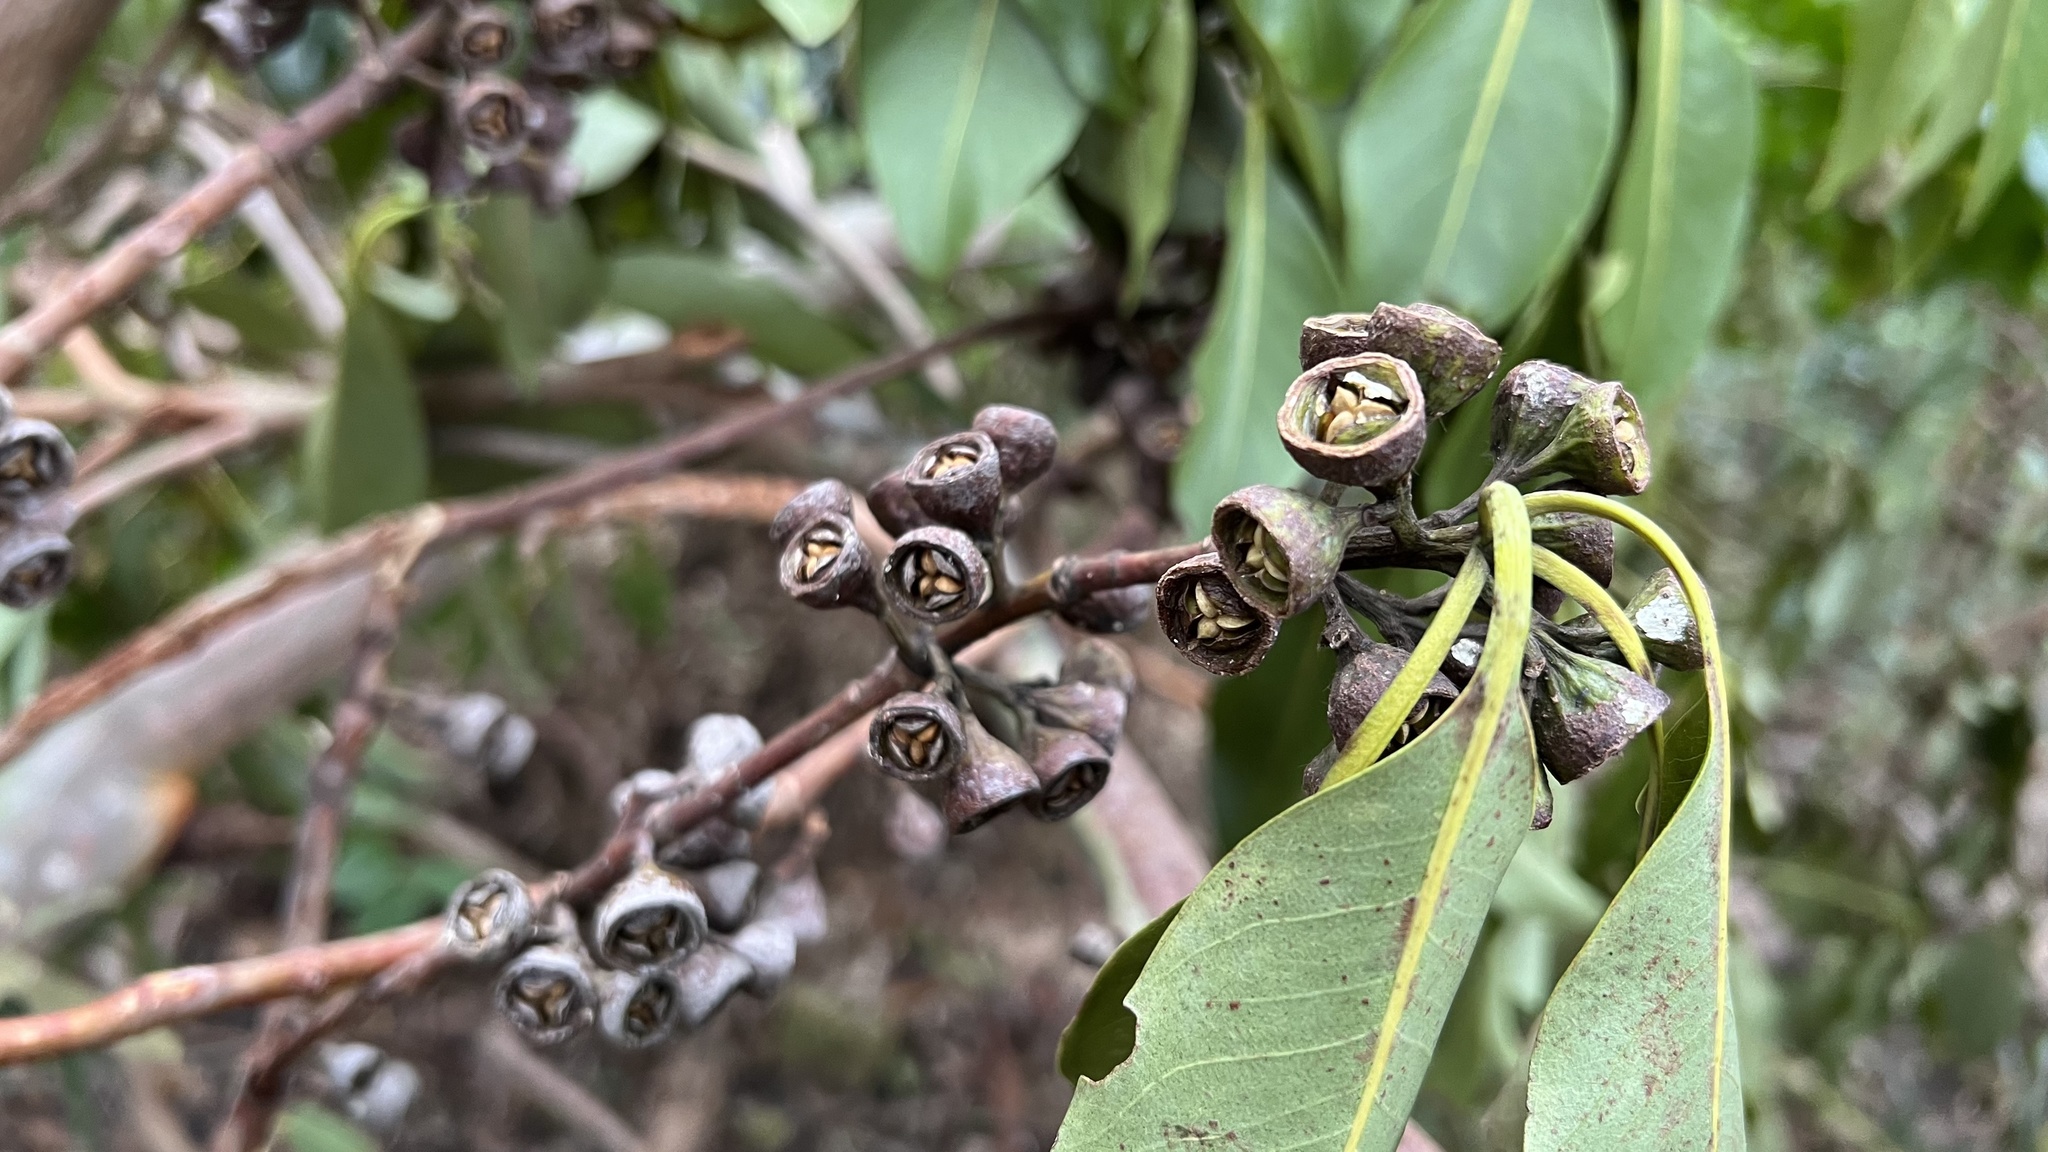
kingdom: Plantae
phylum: Tracheophyta
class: Magnoliopsida
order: Myrtales
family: Myrtaceae
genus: Lophostemon
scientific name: Lophostemon confertus
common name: Brisbane box
